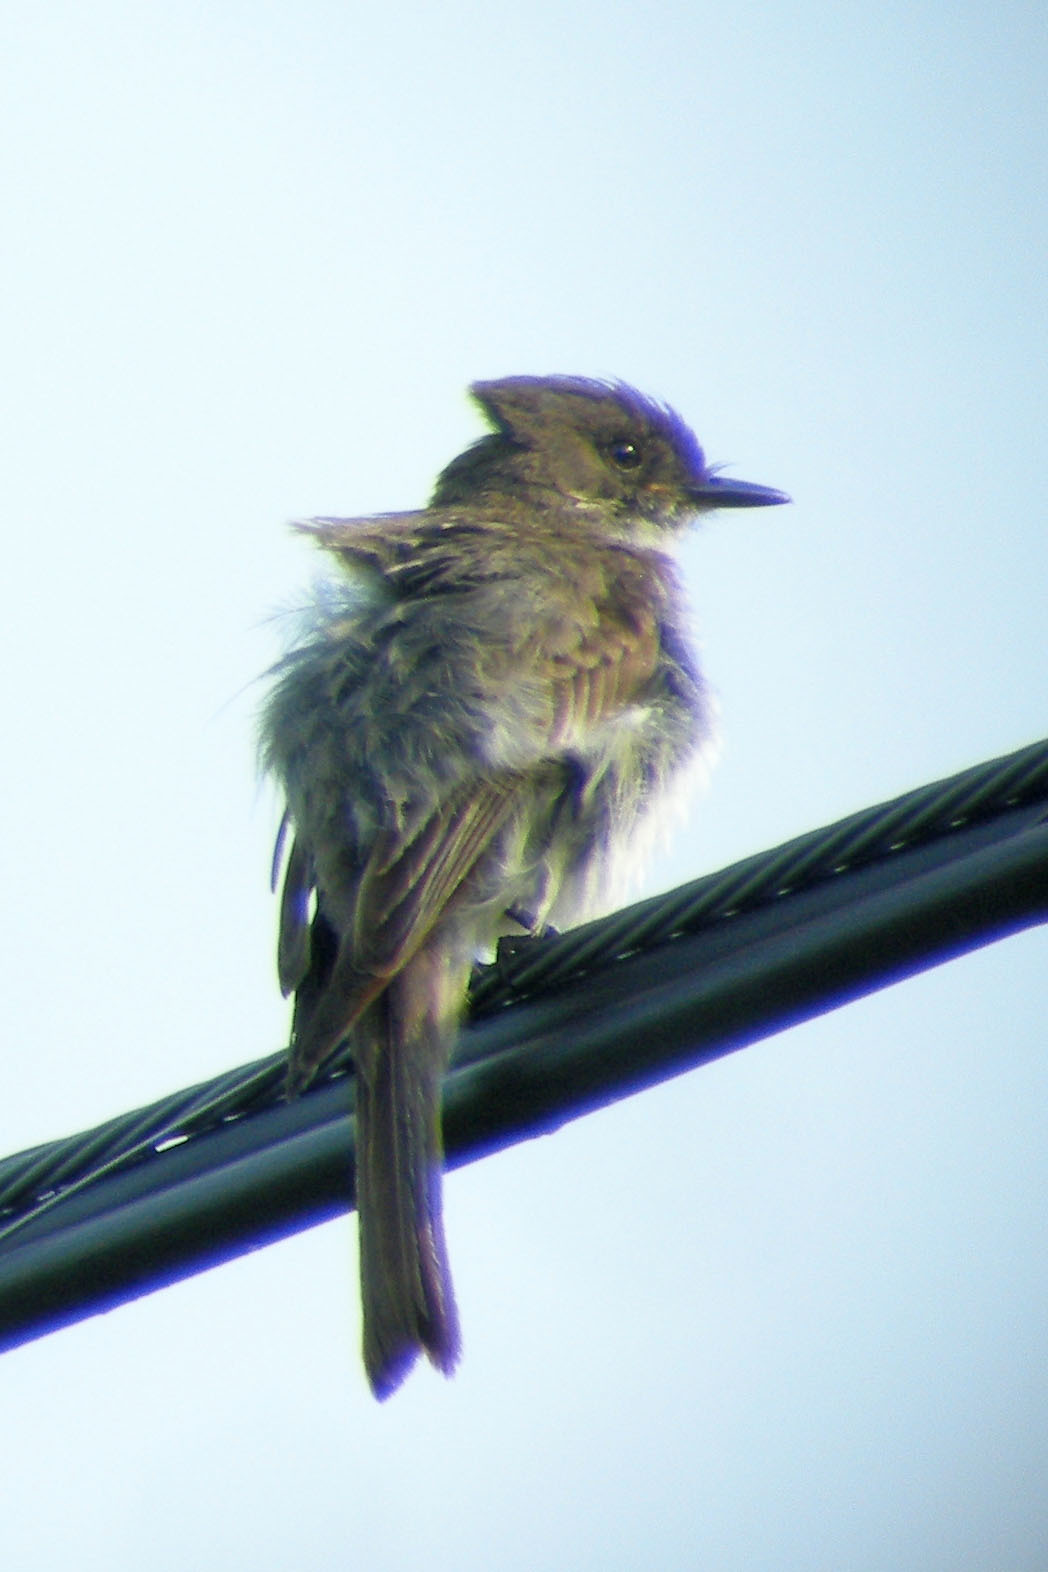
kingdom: Animalia
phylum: Chordata
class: Aves
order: Passeriformes
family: Tyrannidae
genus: Sayornis
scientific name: Sayornis phoebe
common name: Eastern phoebe
